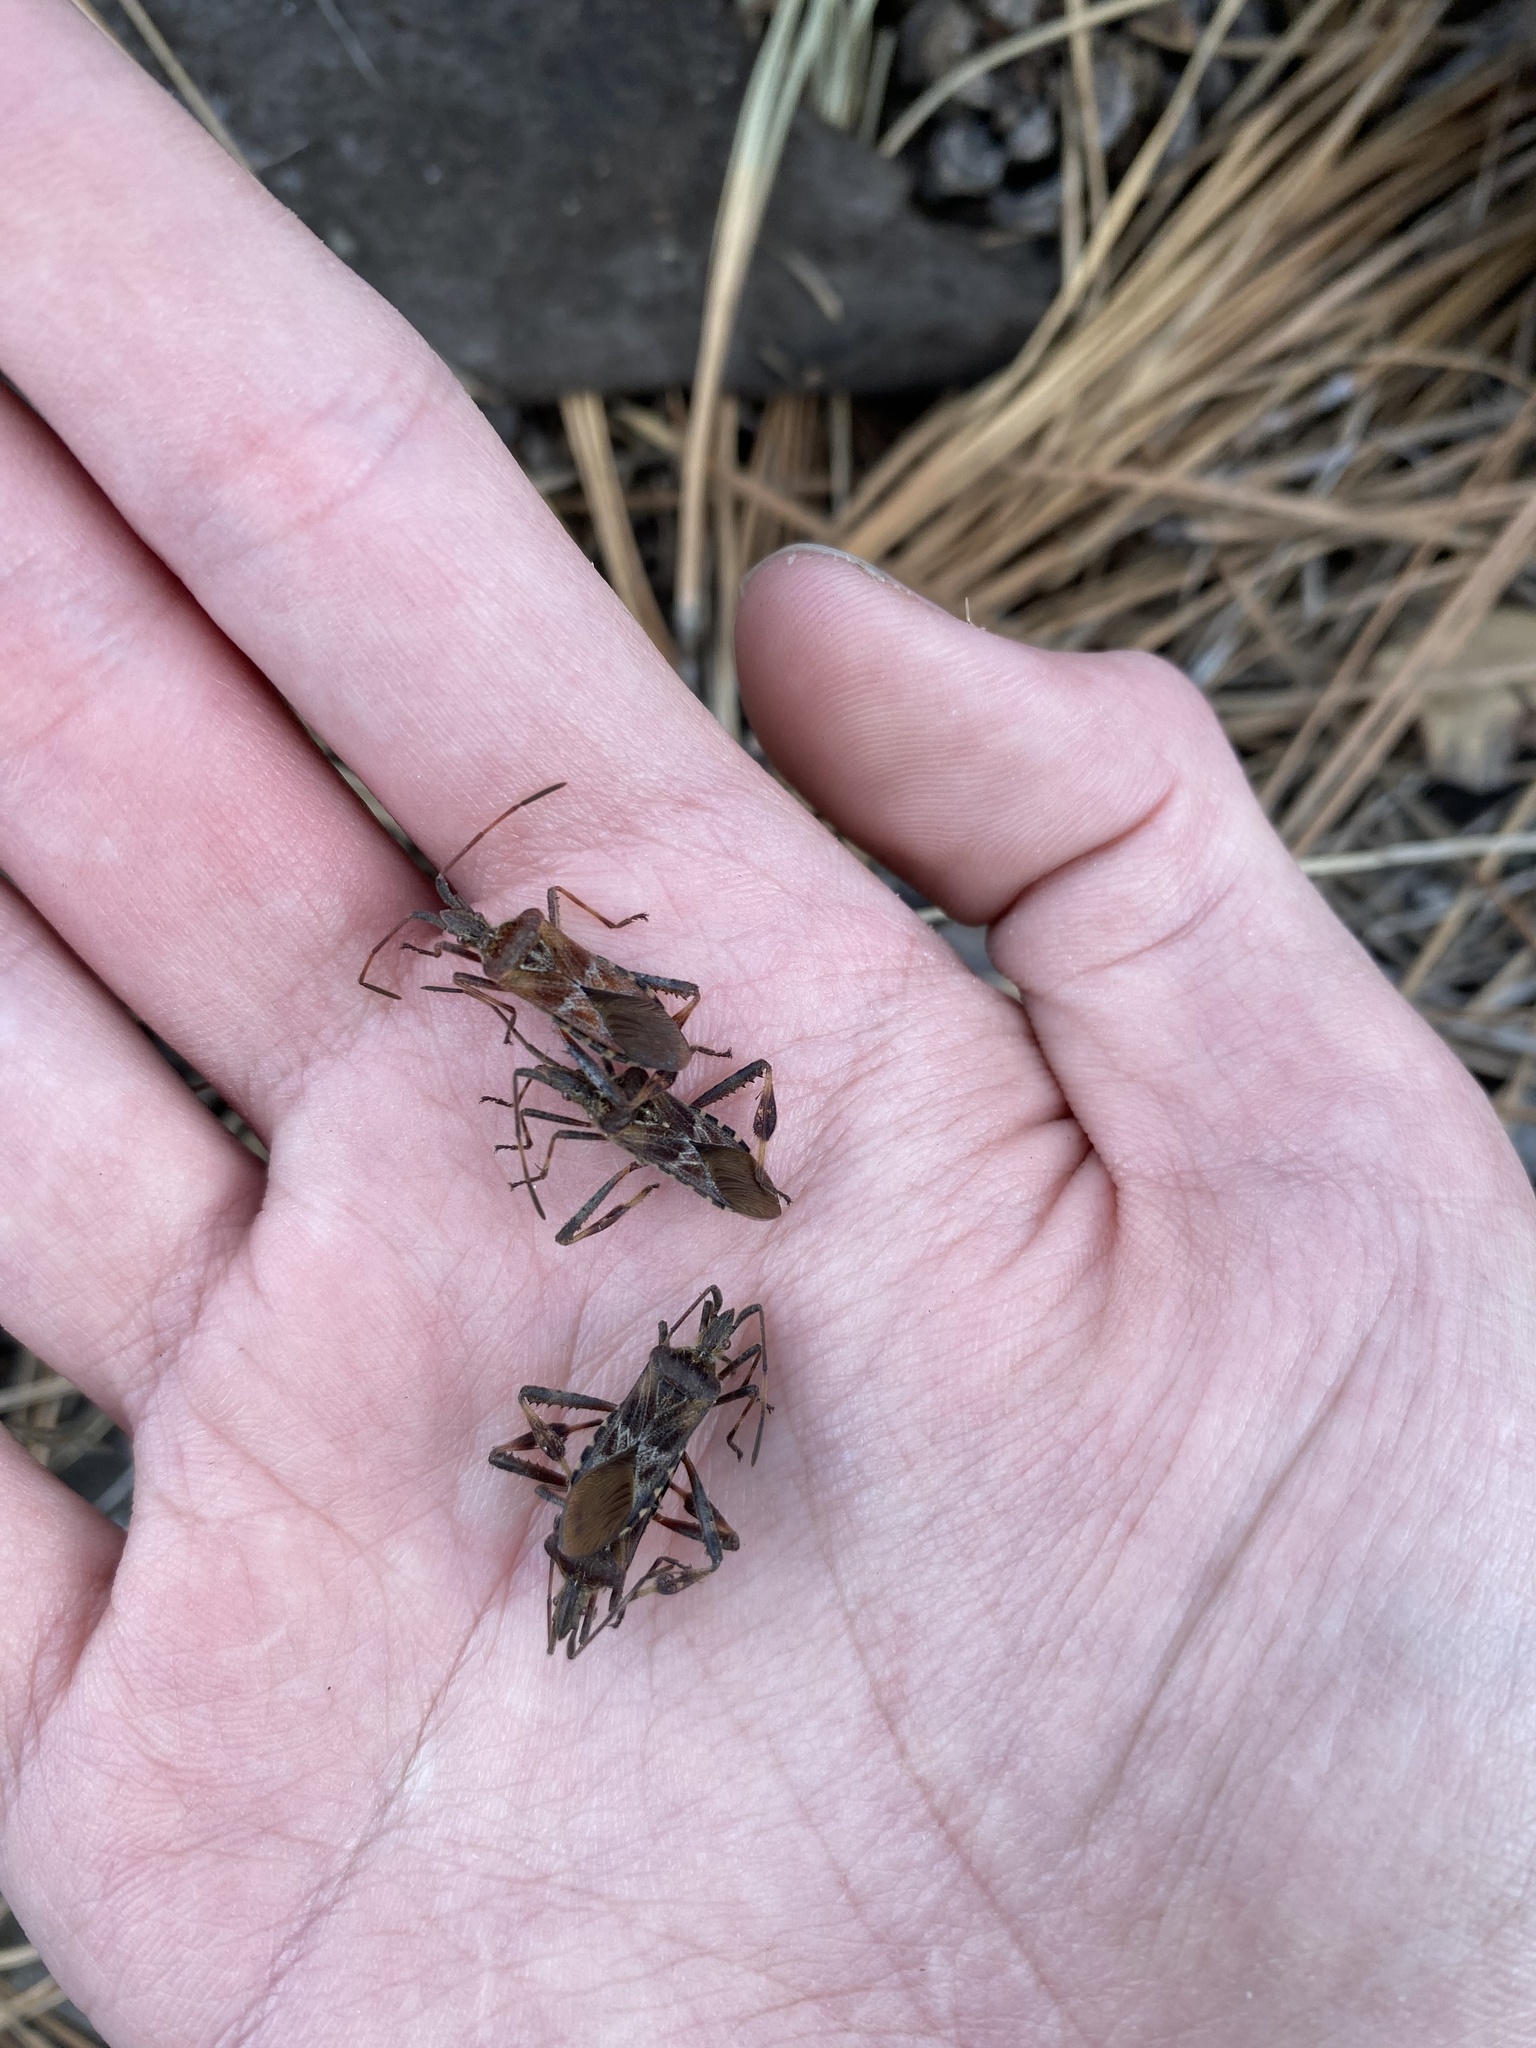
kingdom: Animalia
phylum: Arthropoda
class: Insecta
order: Hemiptera
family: Coreidae
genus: Leptoglossus
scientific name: Leptoglossus occidentalis
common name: Western conifer-seed bug
